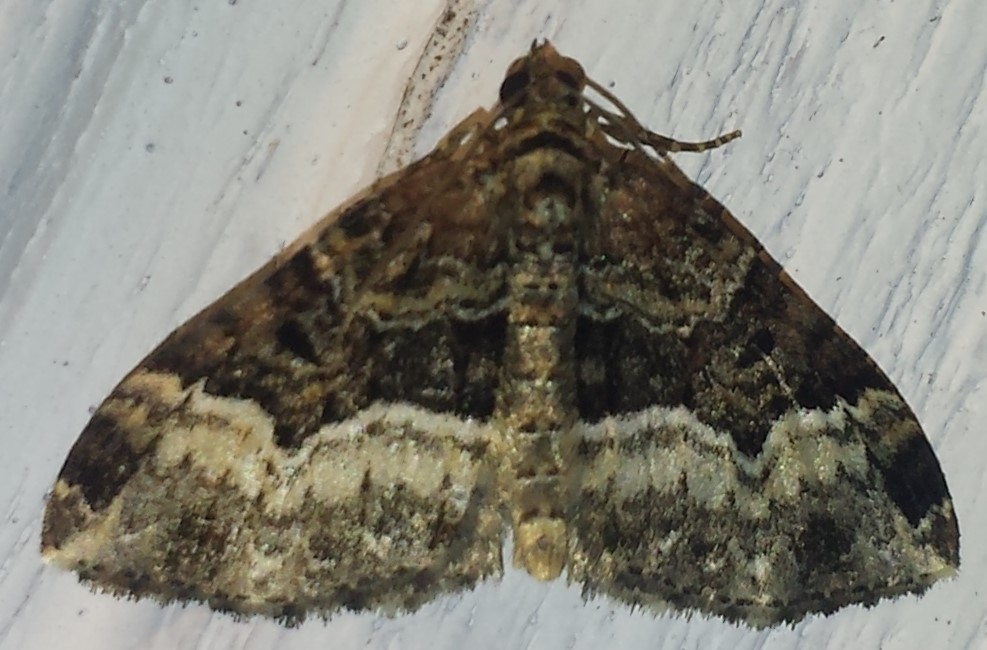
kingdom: Animalia
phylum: Arthropoda
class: Insecta
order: Lepidoptera
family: Geometridae
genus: Euphyia
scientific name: Euphyia intermediata
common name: Sharp-angled carpet
